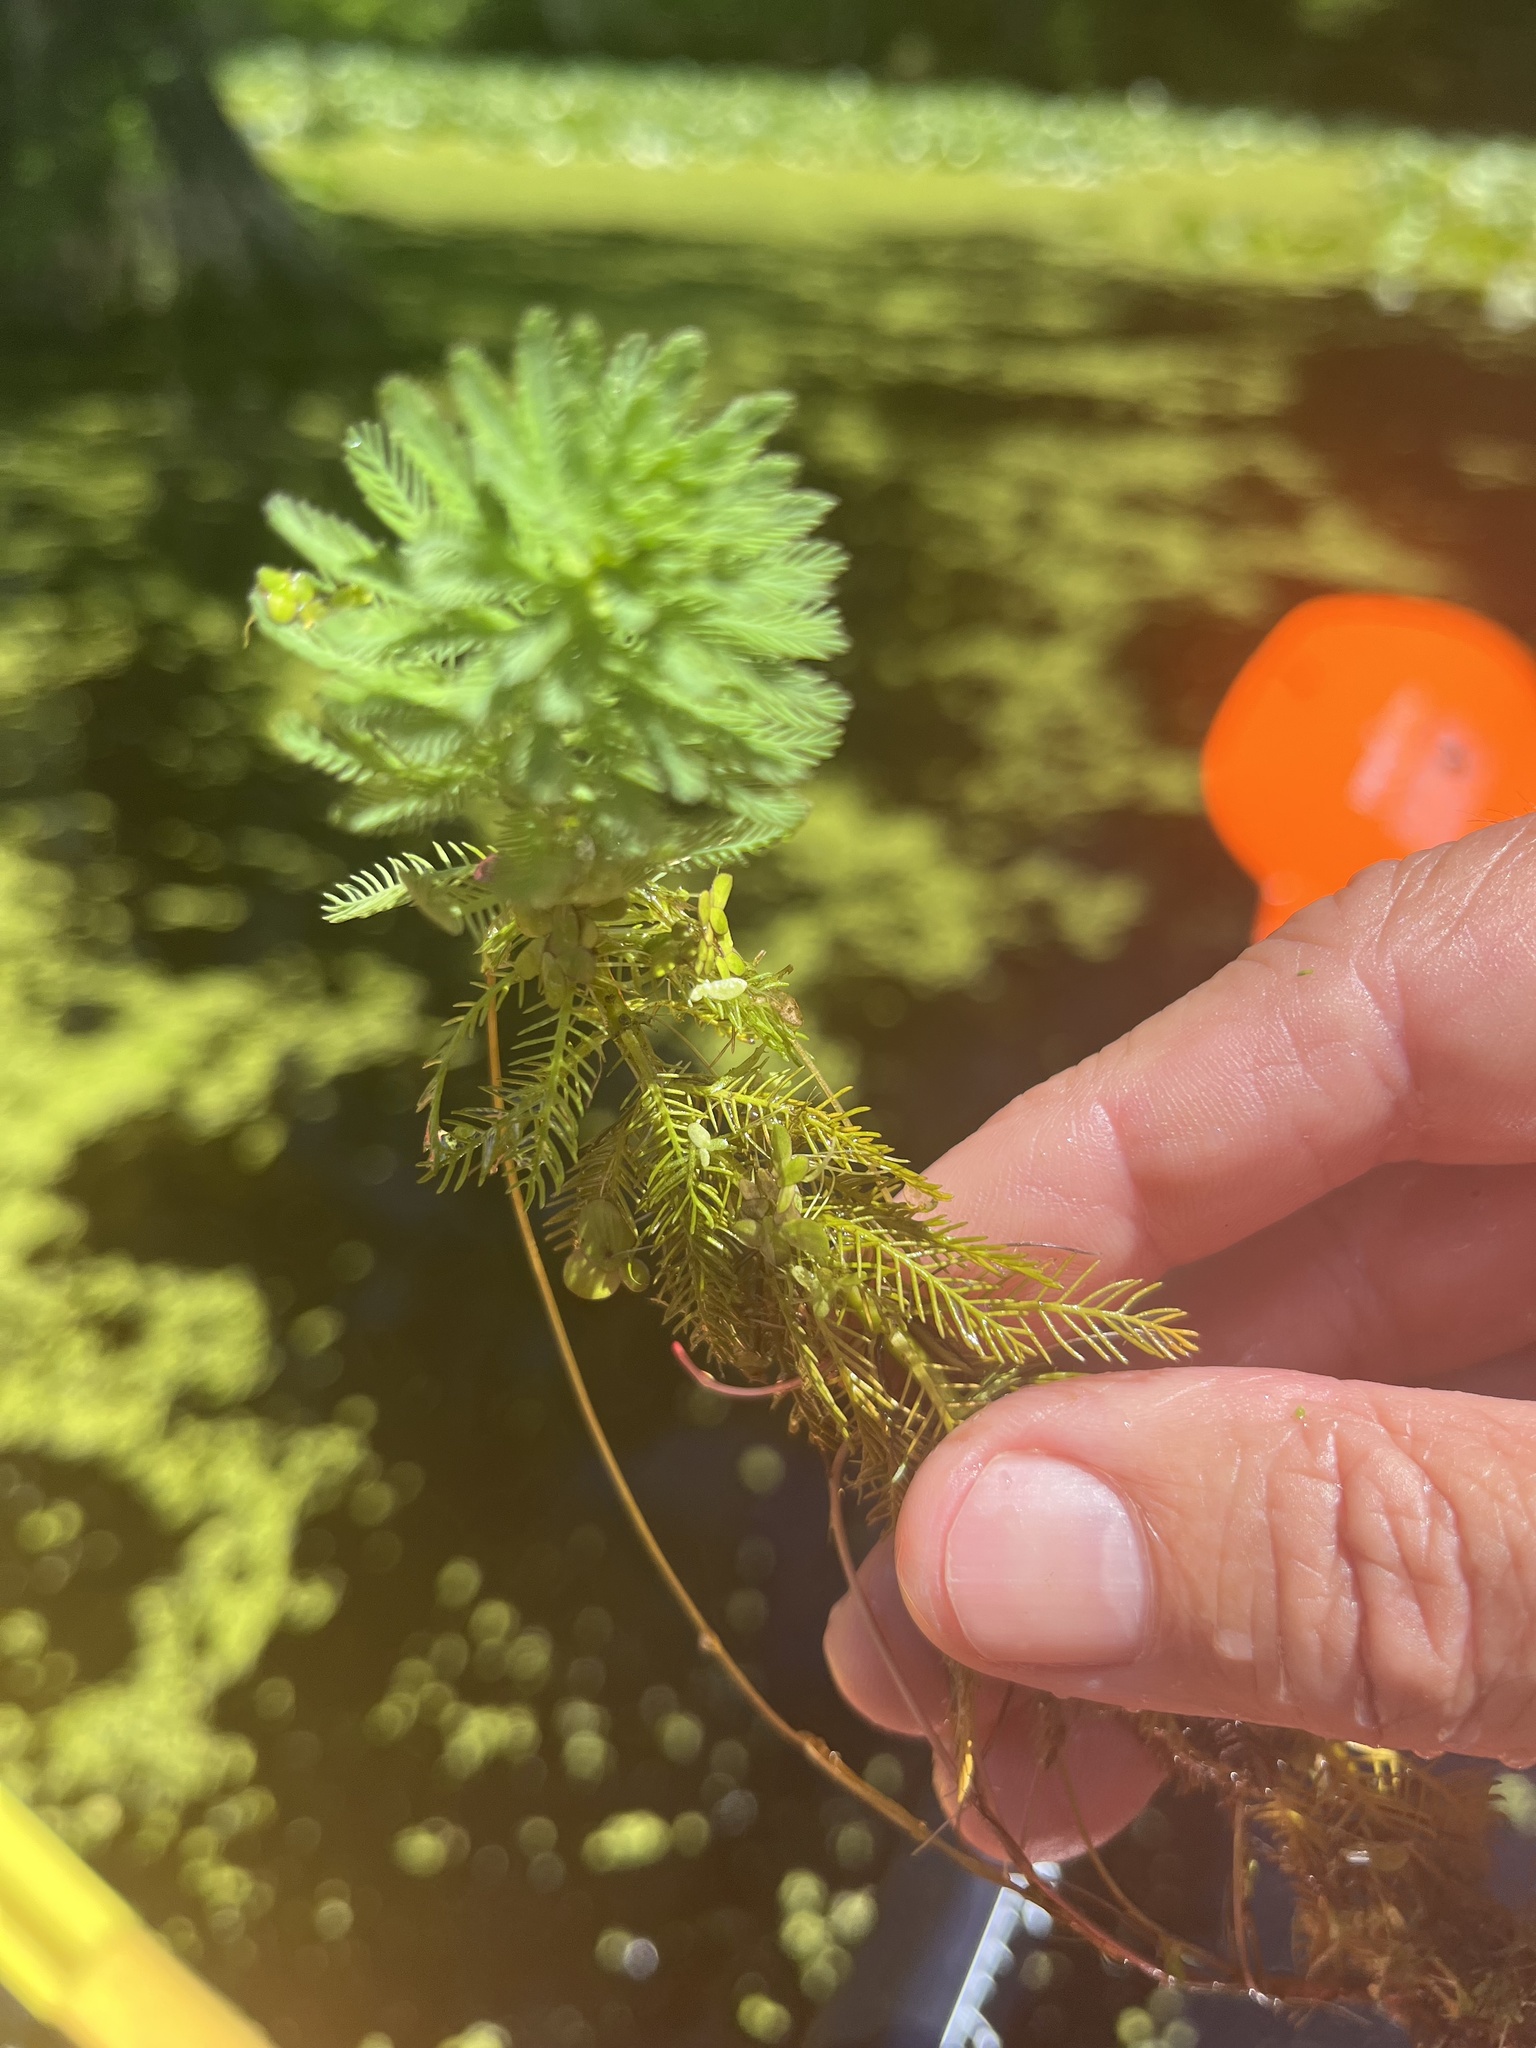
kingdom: Plantae
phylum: Tracheophyta
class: Magnoliopsida
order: Saxifragales
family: Haloragaceae
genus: Myriophyllum
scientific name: Myriophyllum aquaticum
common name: Parrot's feather
